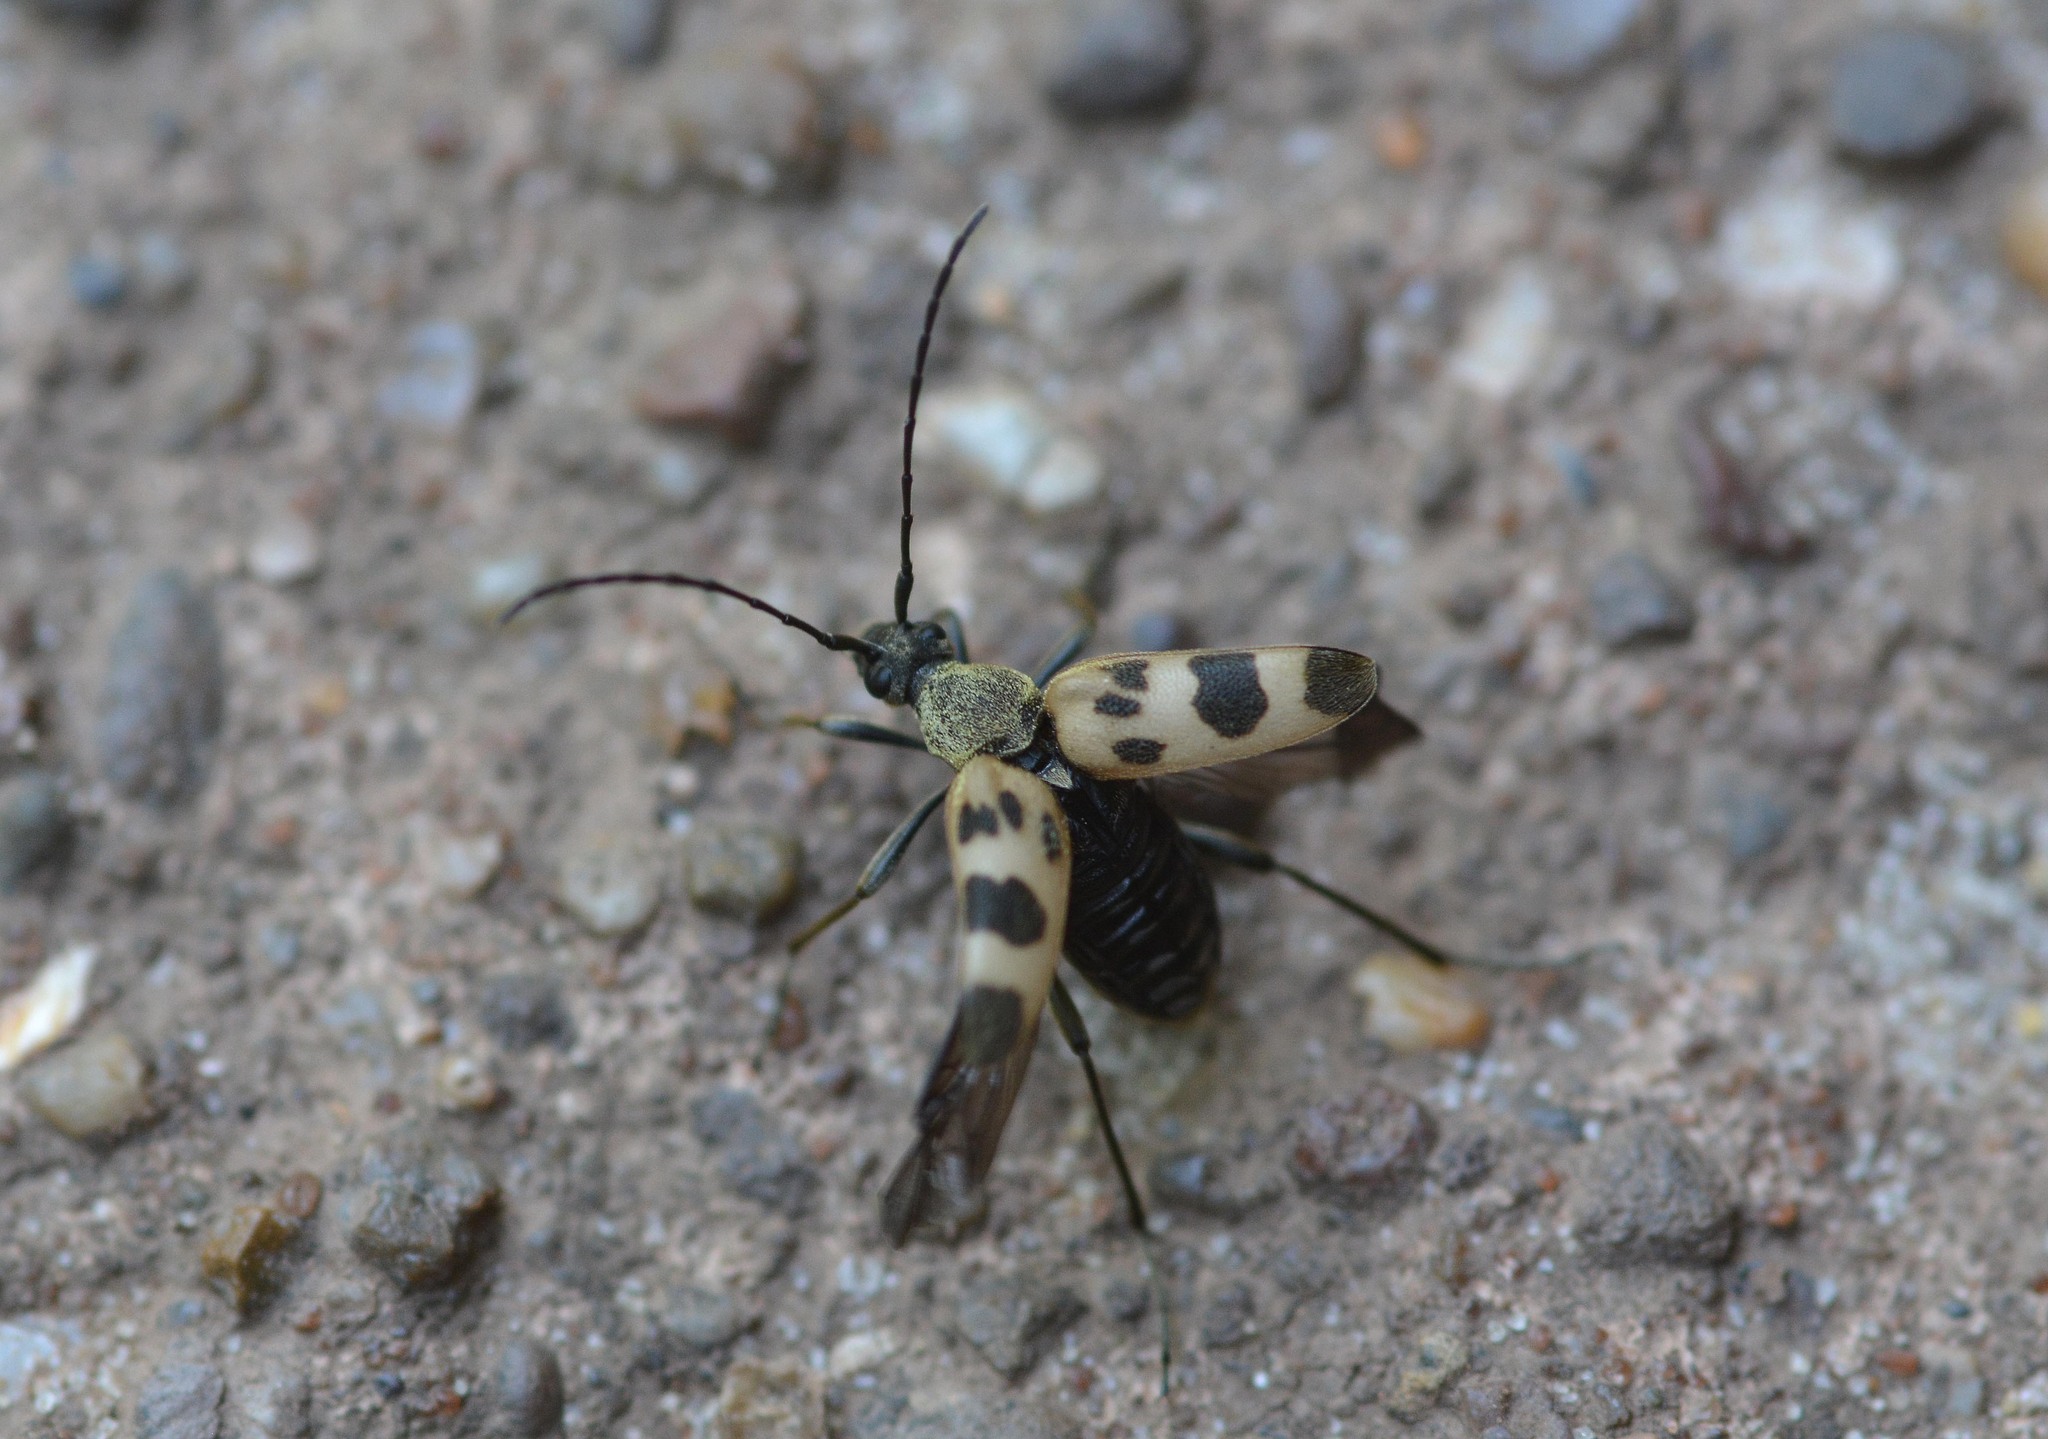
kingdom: Animalia
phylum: Arthropoda
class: Insecta
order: Coleoptera
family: Cerambycidae
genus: Pachytodes
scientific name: Pachytodes cerambyciformis
